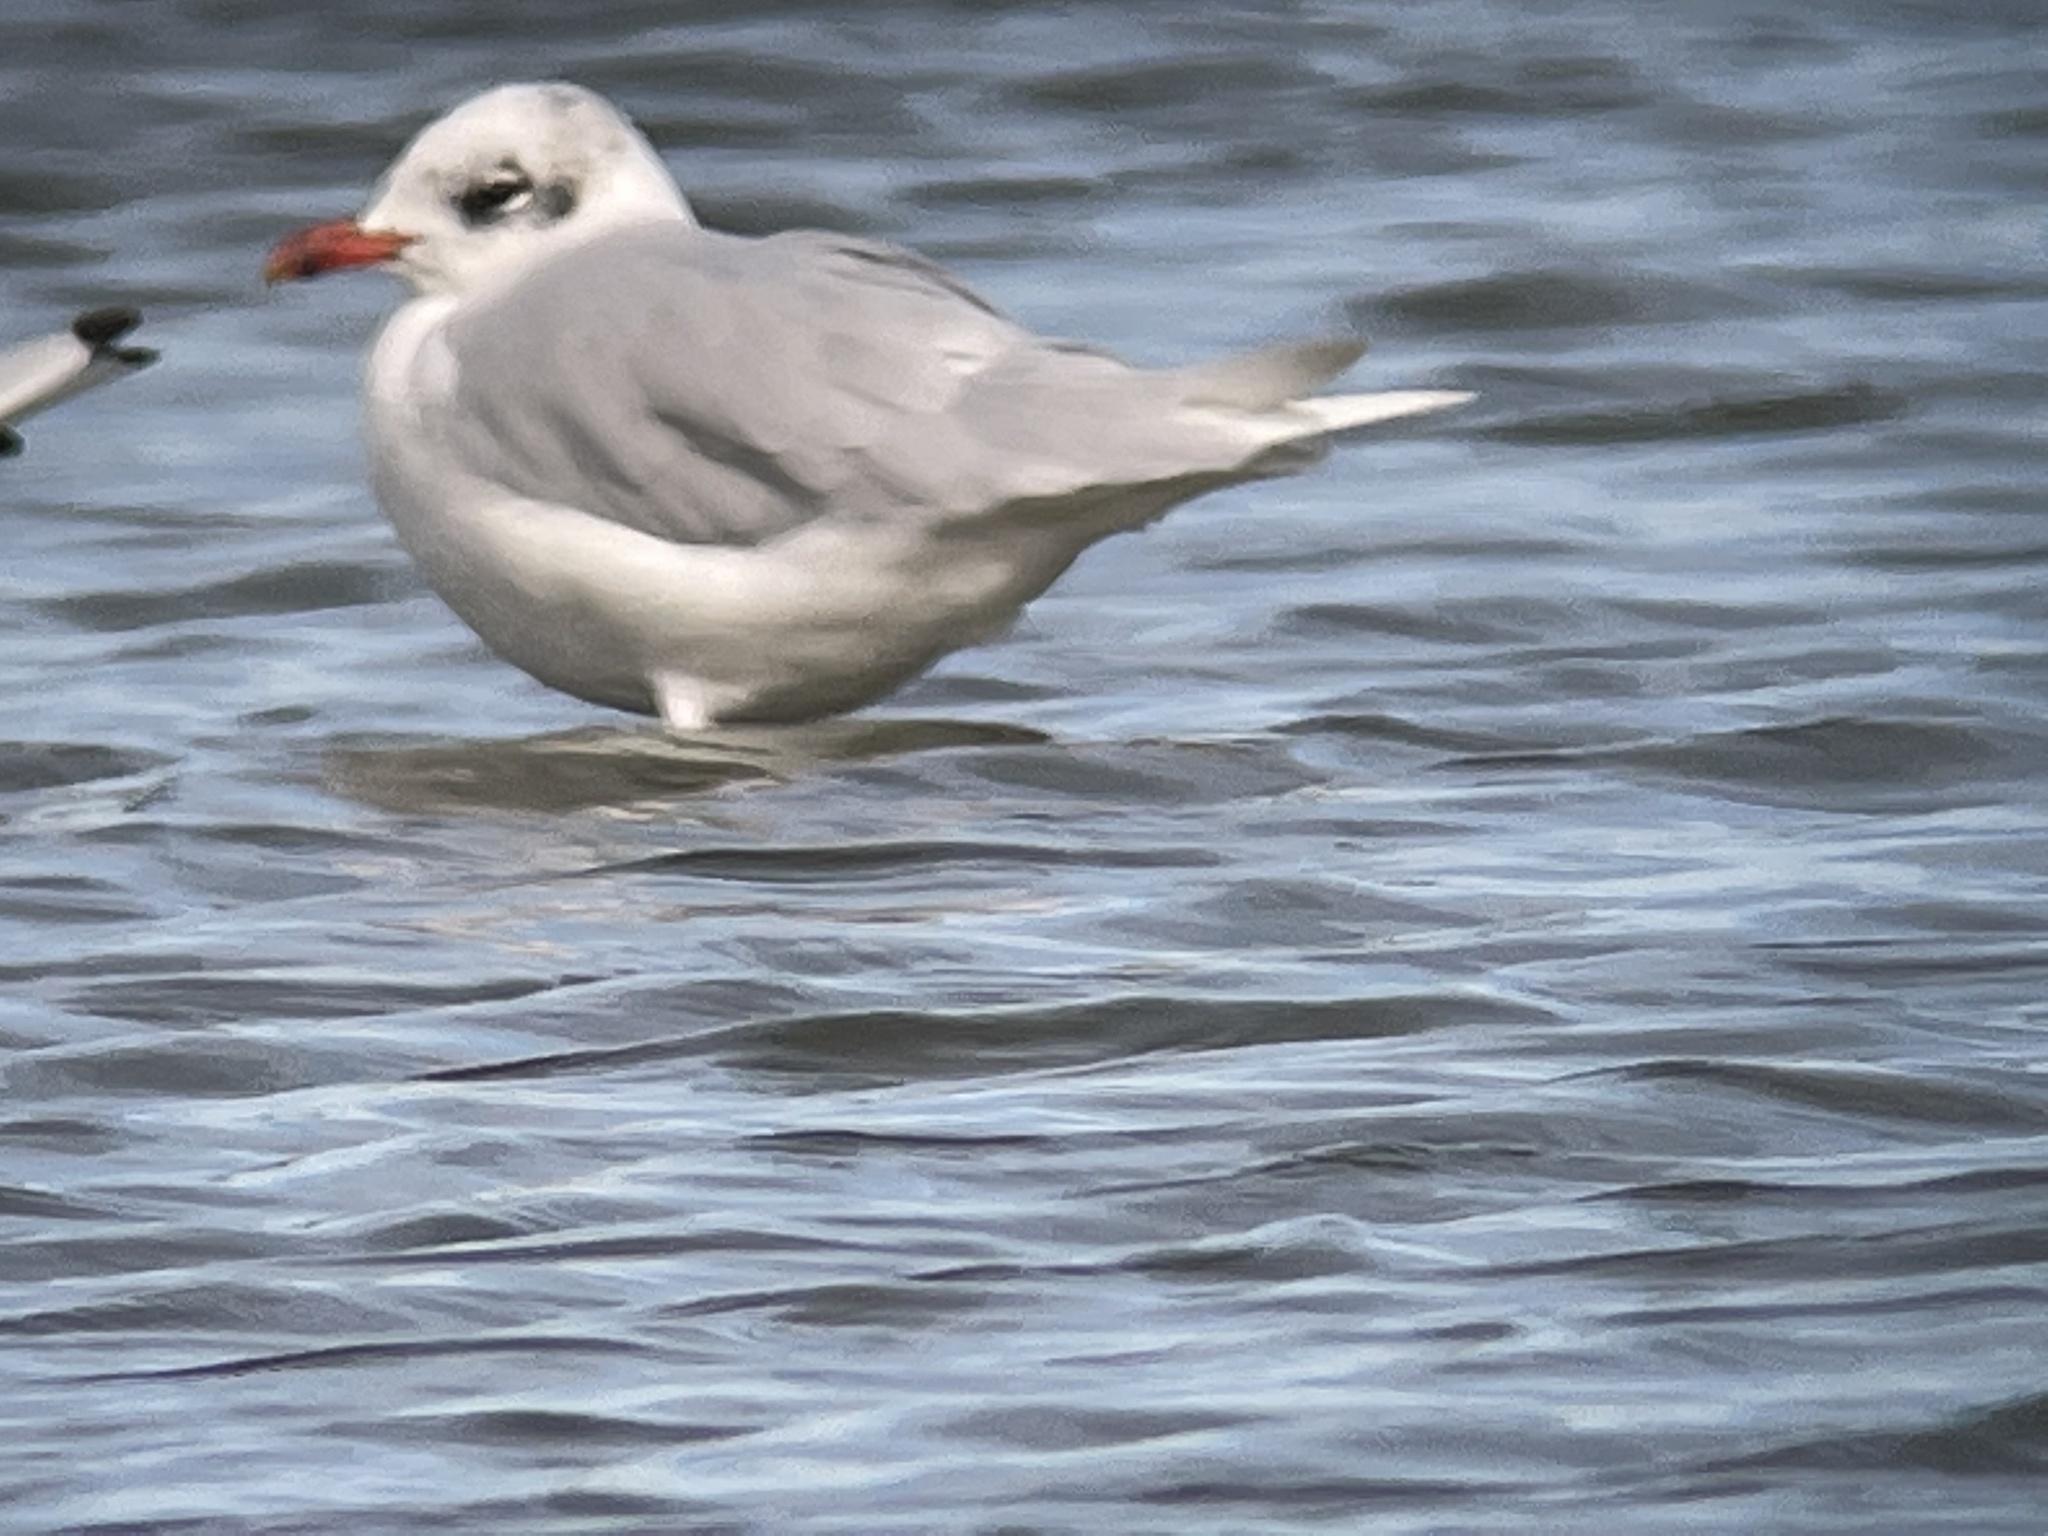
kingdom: Animalia
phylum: Chordata
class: Aves
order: Charadriiformes
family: Laridae
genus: Ichthyaetus
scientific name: Ichthyaetus melanocephalus
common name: Mediterranean gull
